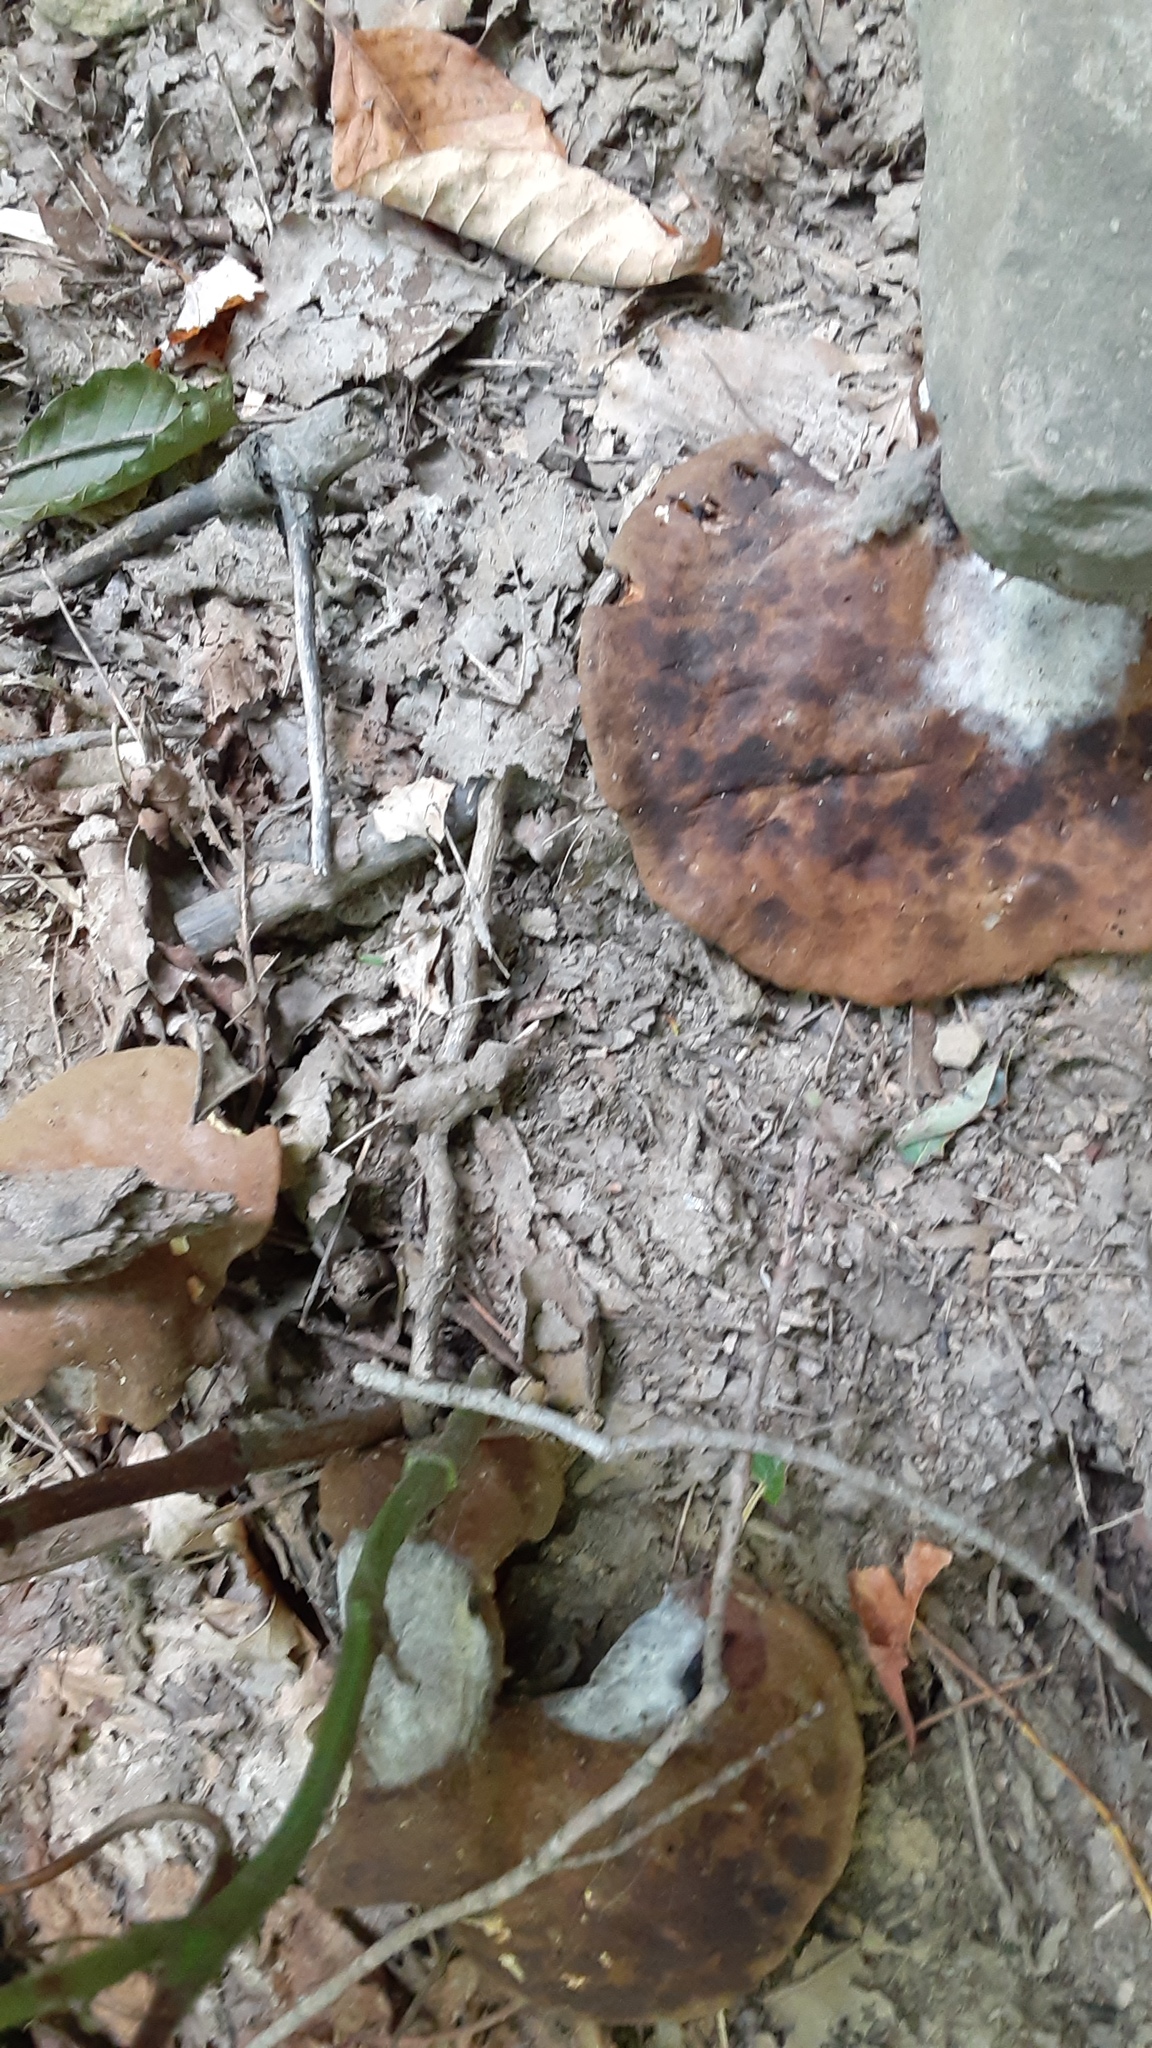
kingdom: Fungi
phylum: Basidiomycota
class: Agaricomycetes
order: Boletales
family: Boletinellaceae
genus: Boletinellus
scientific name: Boletinellus merulioides
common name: Ash tree bolete
